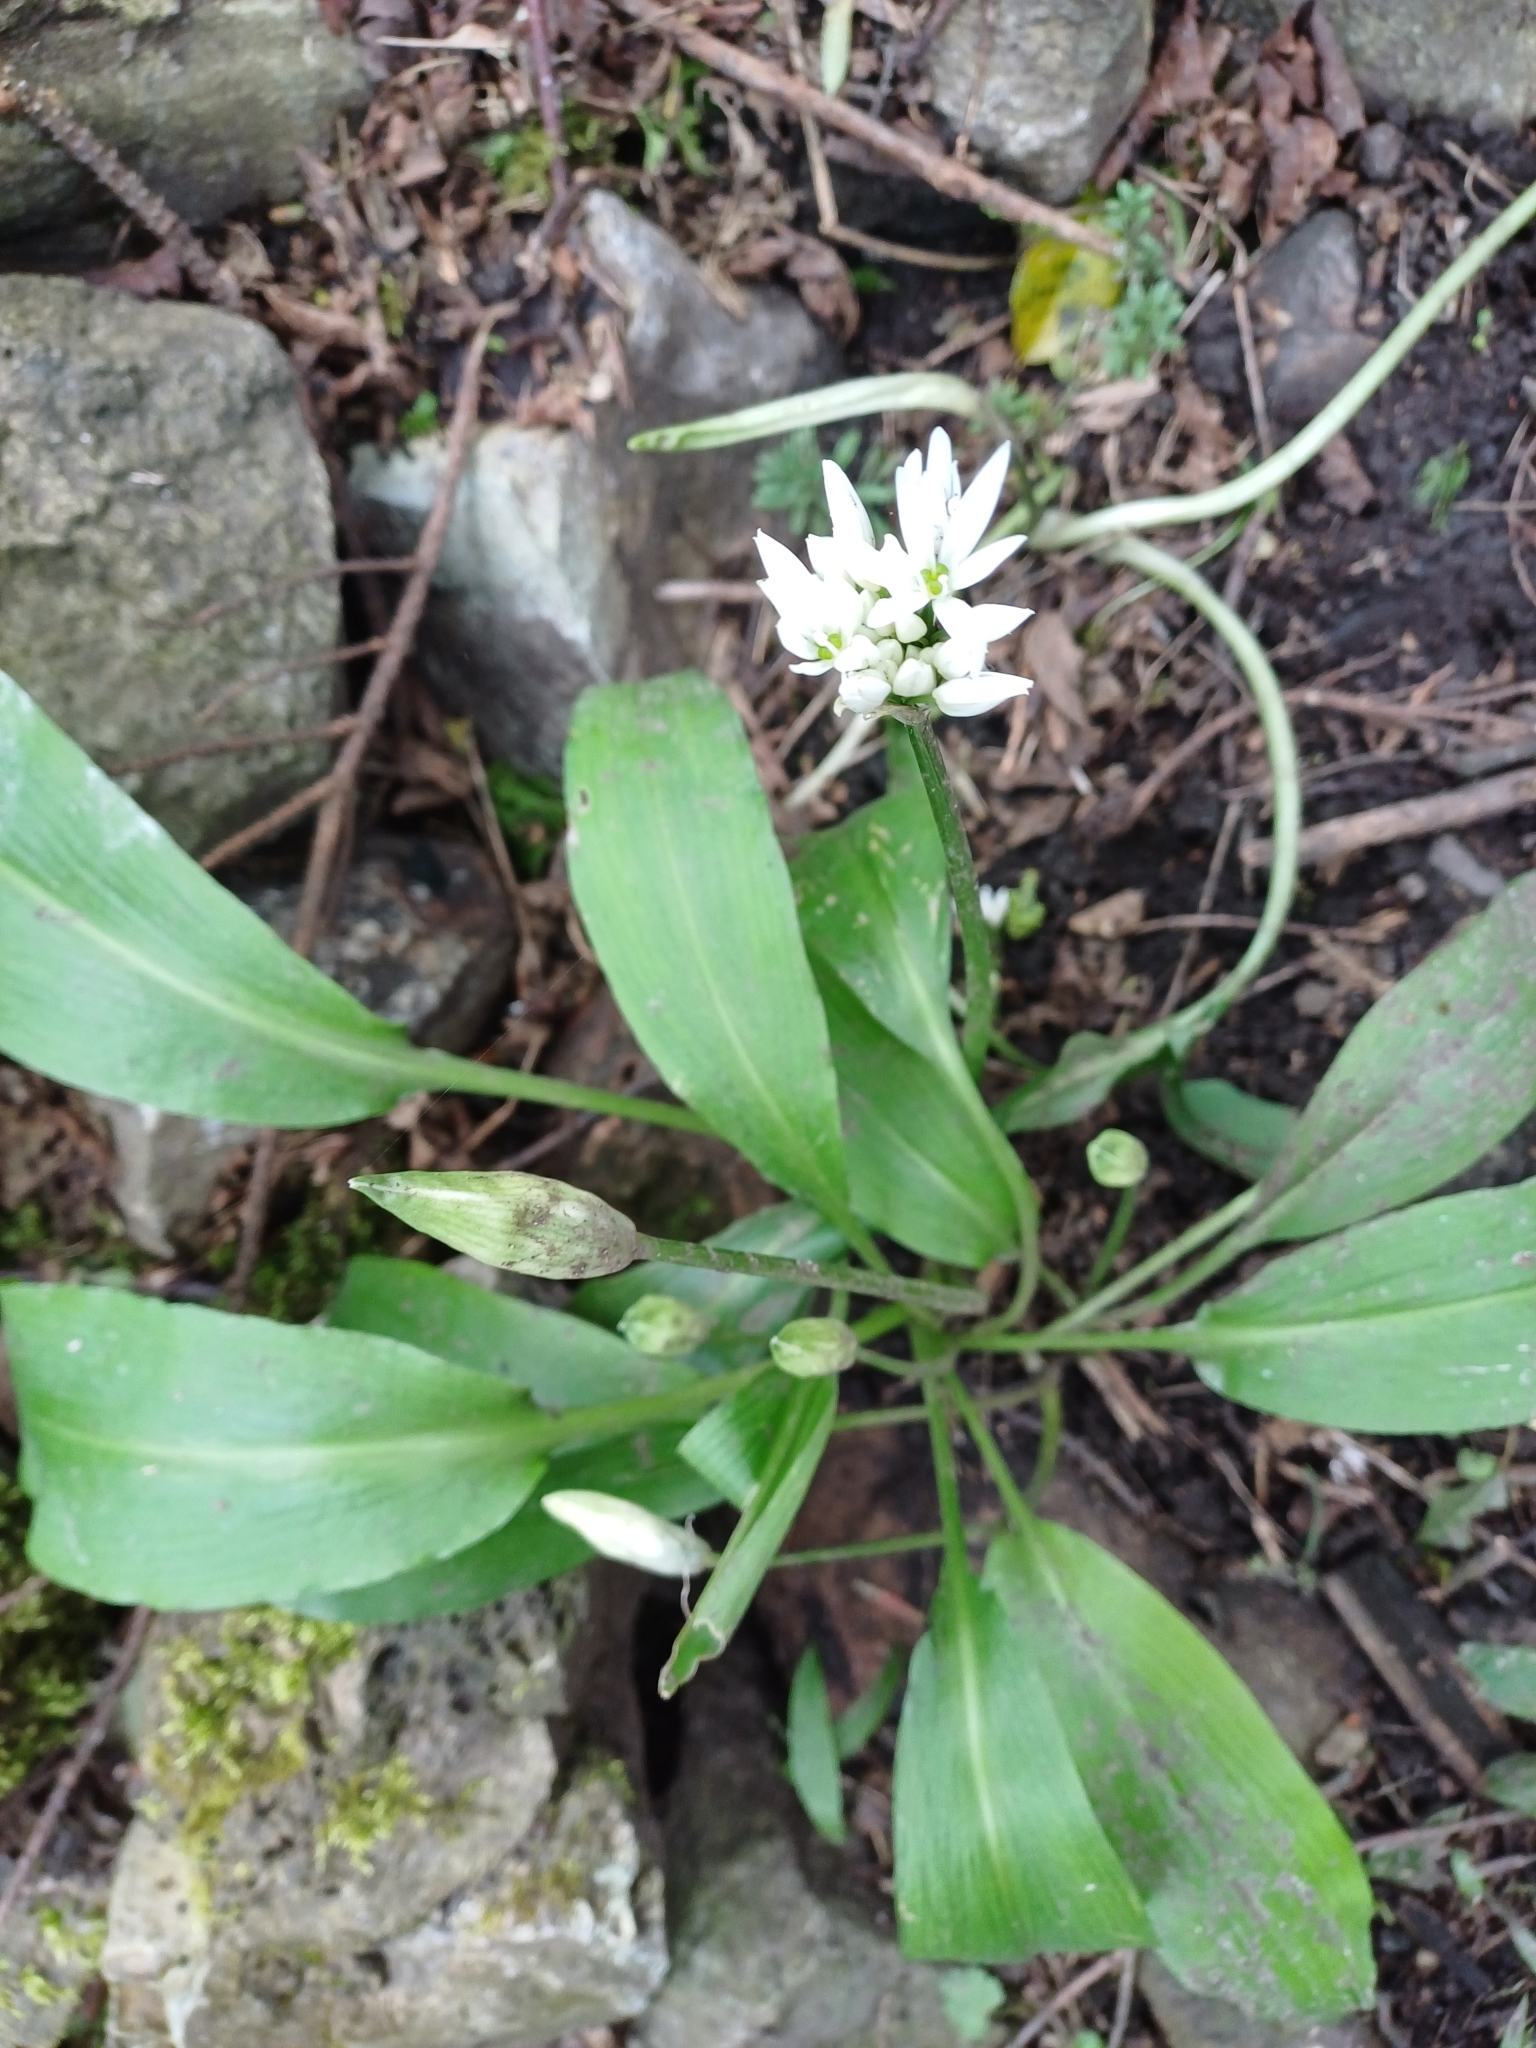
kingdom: Plantae
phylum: Tracheophyta
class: Liliopsida
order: Asparagales
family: Amaryllidaceae
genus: Allium
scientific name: Allium ursinum
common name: Ramsons
